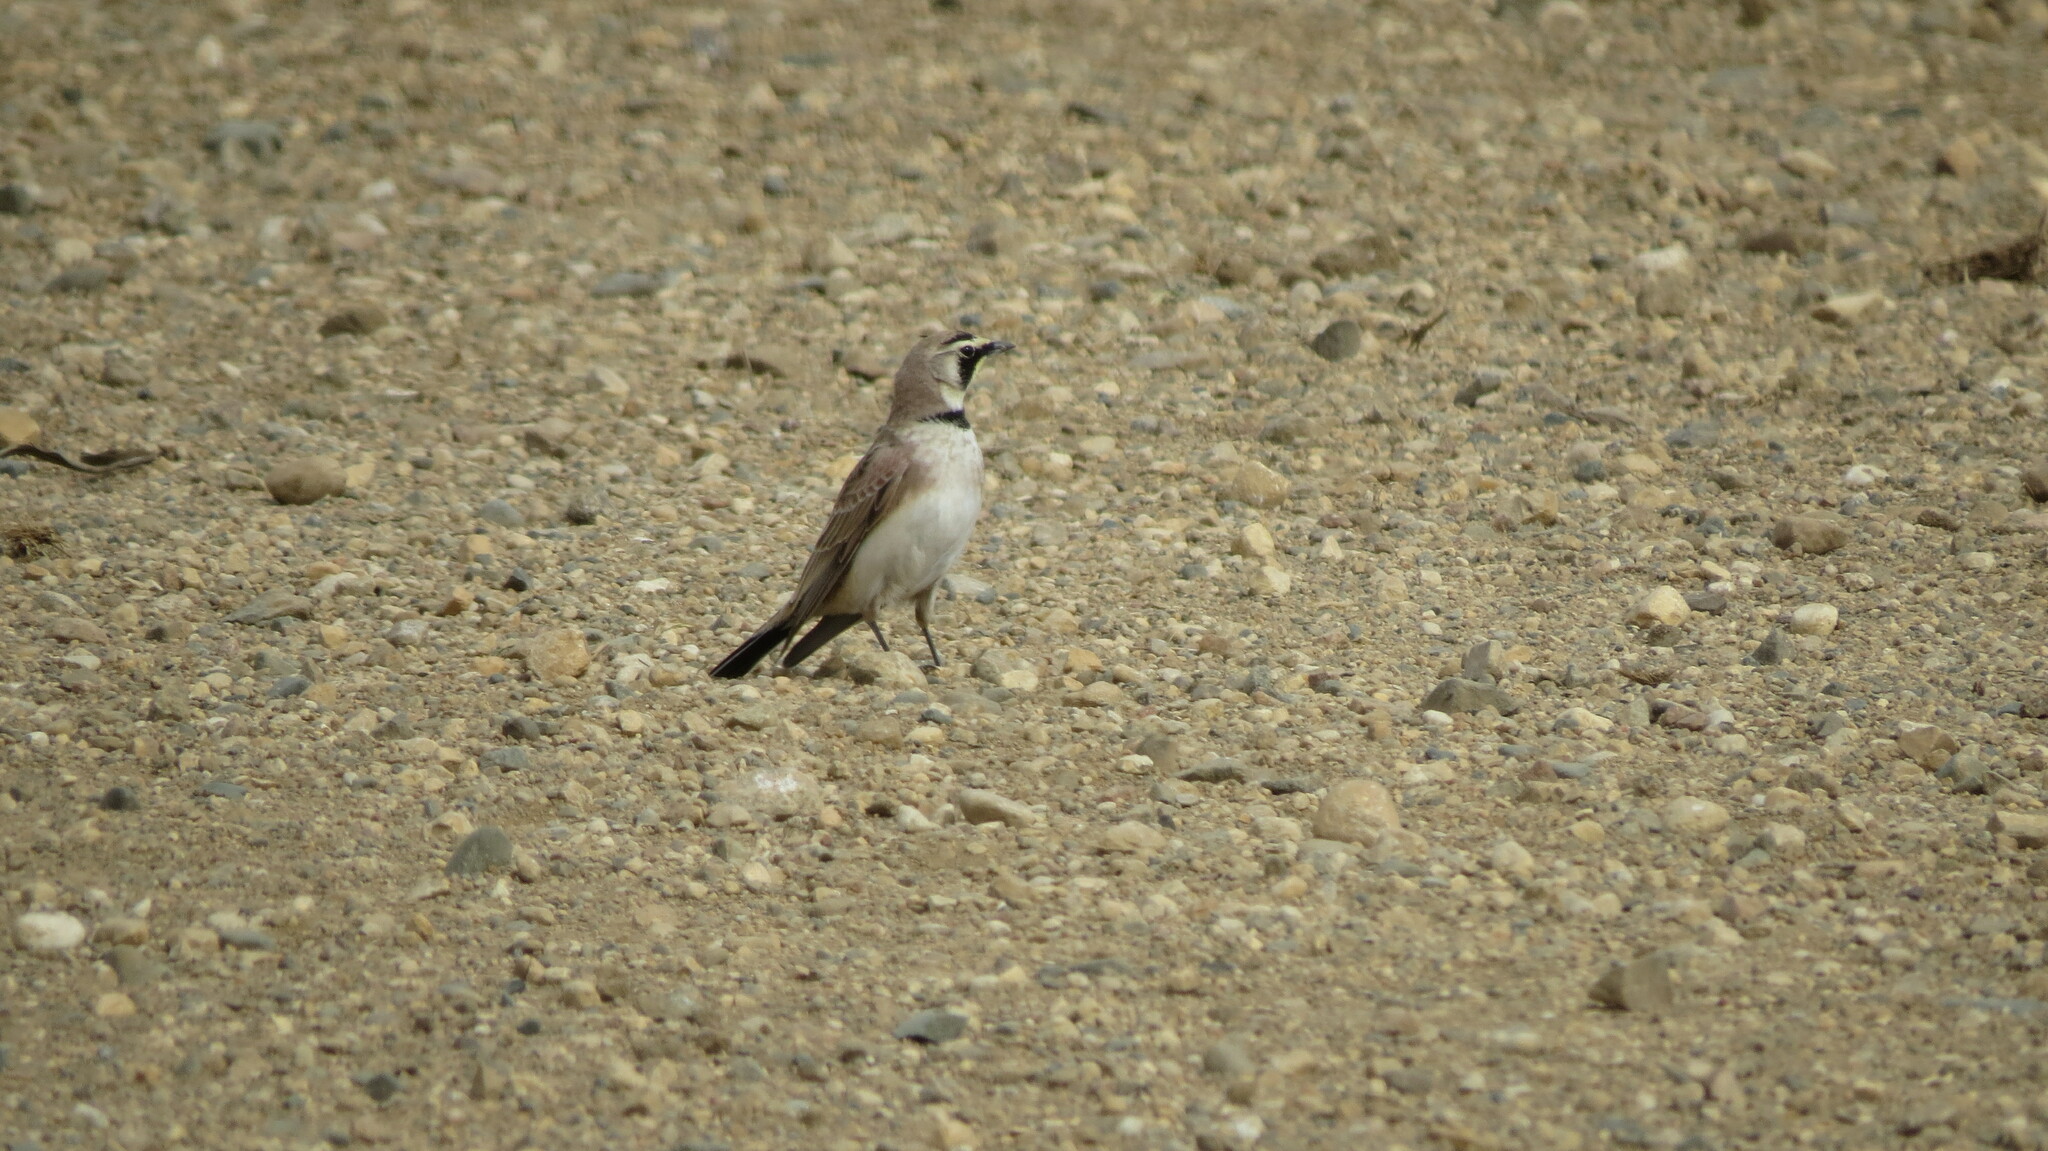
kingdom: Animalia
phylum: Chordata
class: Aves
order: Passeriformes
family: Alaudidae
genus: Eremophila
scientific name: Eremophila alpestris
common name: Horned lark
